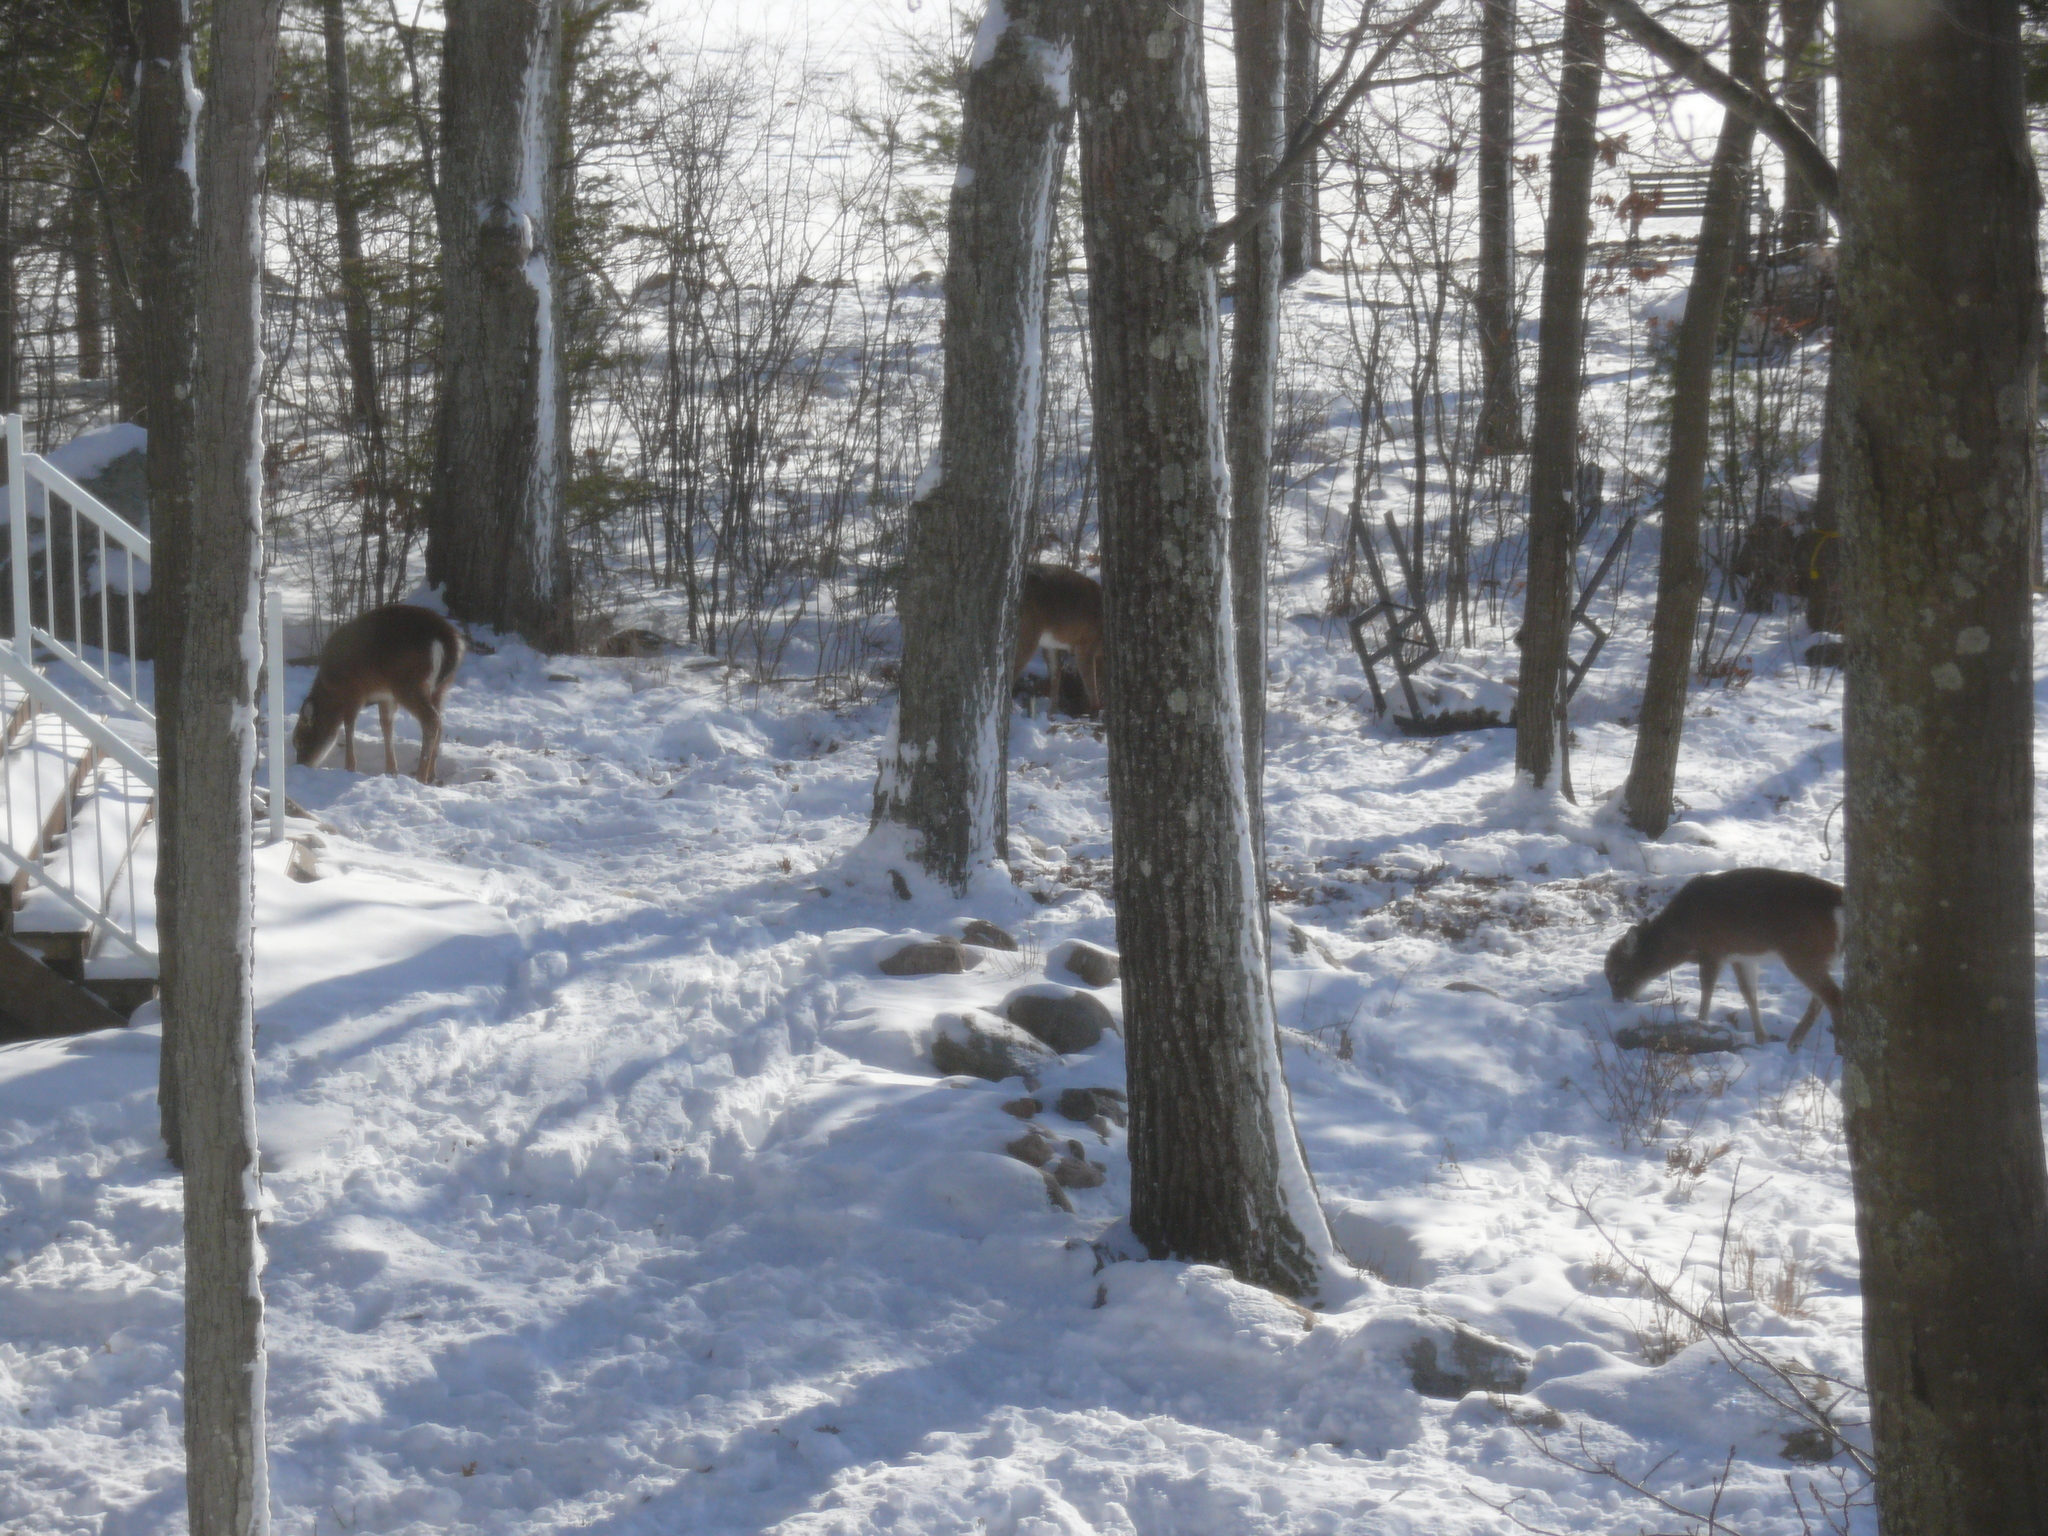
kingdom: Animalia
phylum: Chordata
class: Mammalia
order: Artiodactyla
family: Cervidae
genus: Odocoileus
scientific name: Odocoileus virginianus
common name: White-tailed deer
